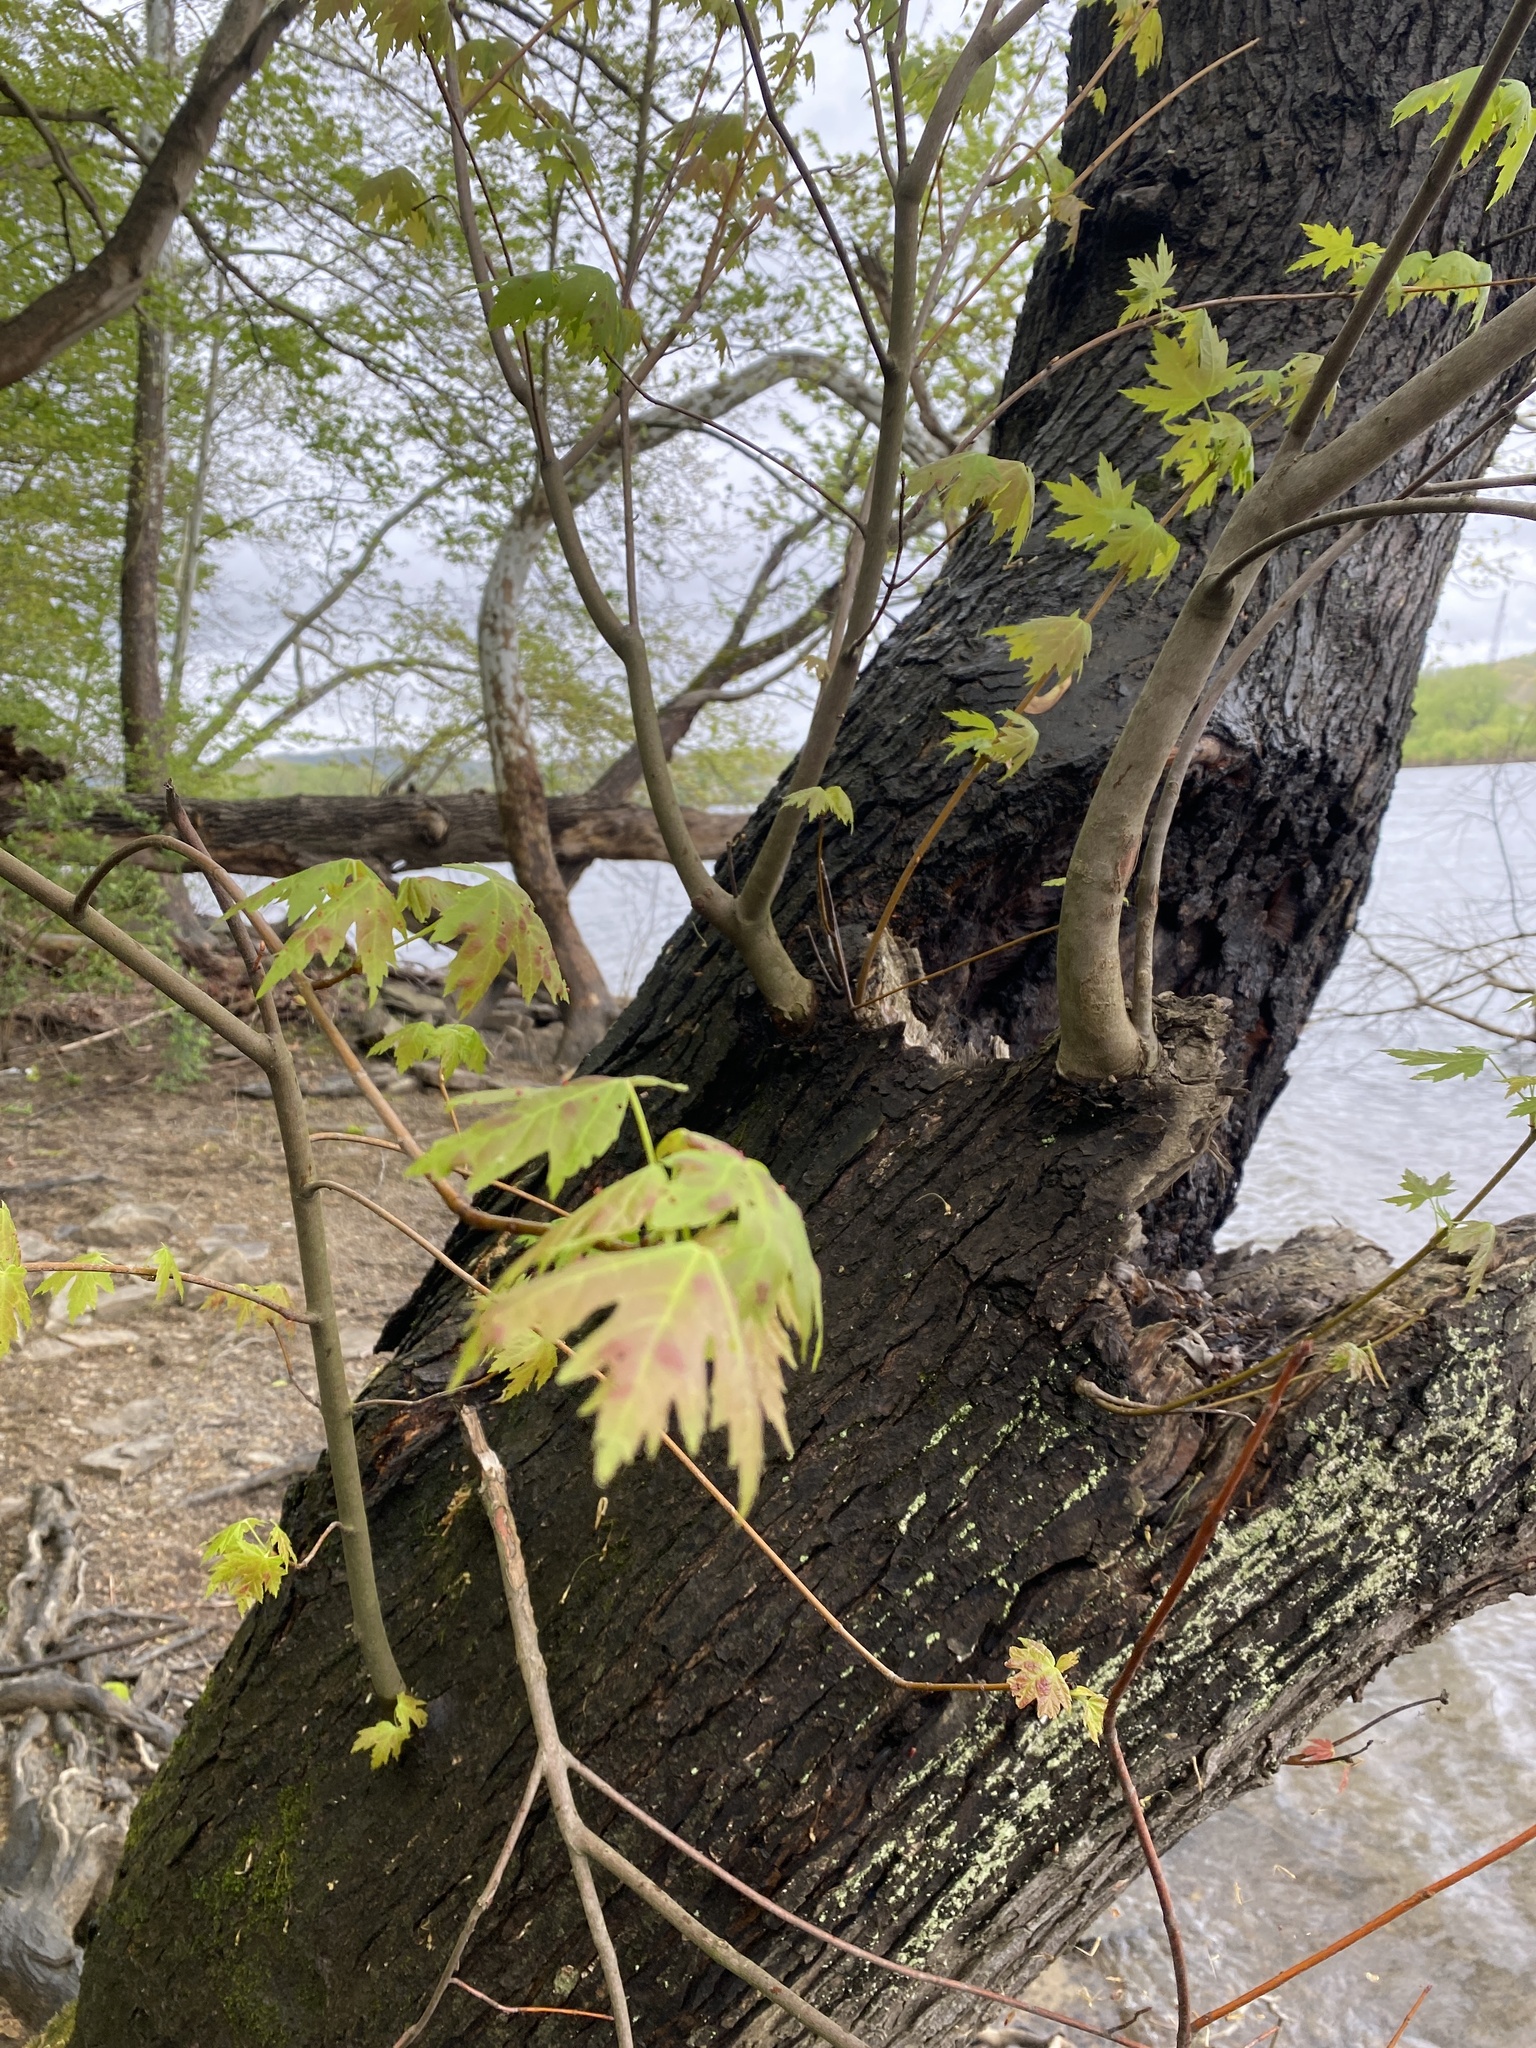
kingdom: Plantae
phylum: Tracheophyta
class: Magnoliopsida
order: Sapindales
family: Sapindaceae
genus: Acer
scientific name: Acer saccharinum
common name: Silver maple
